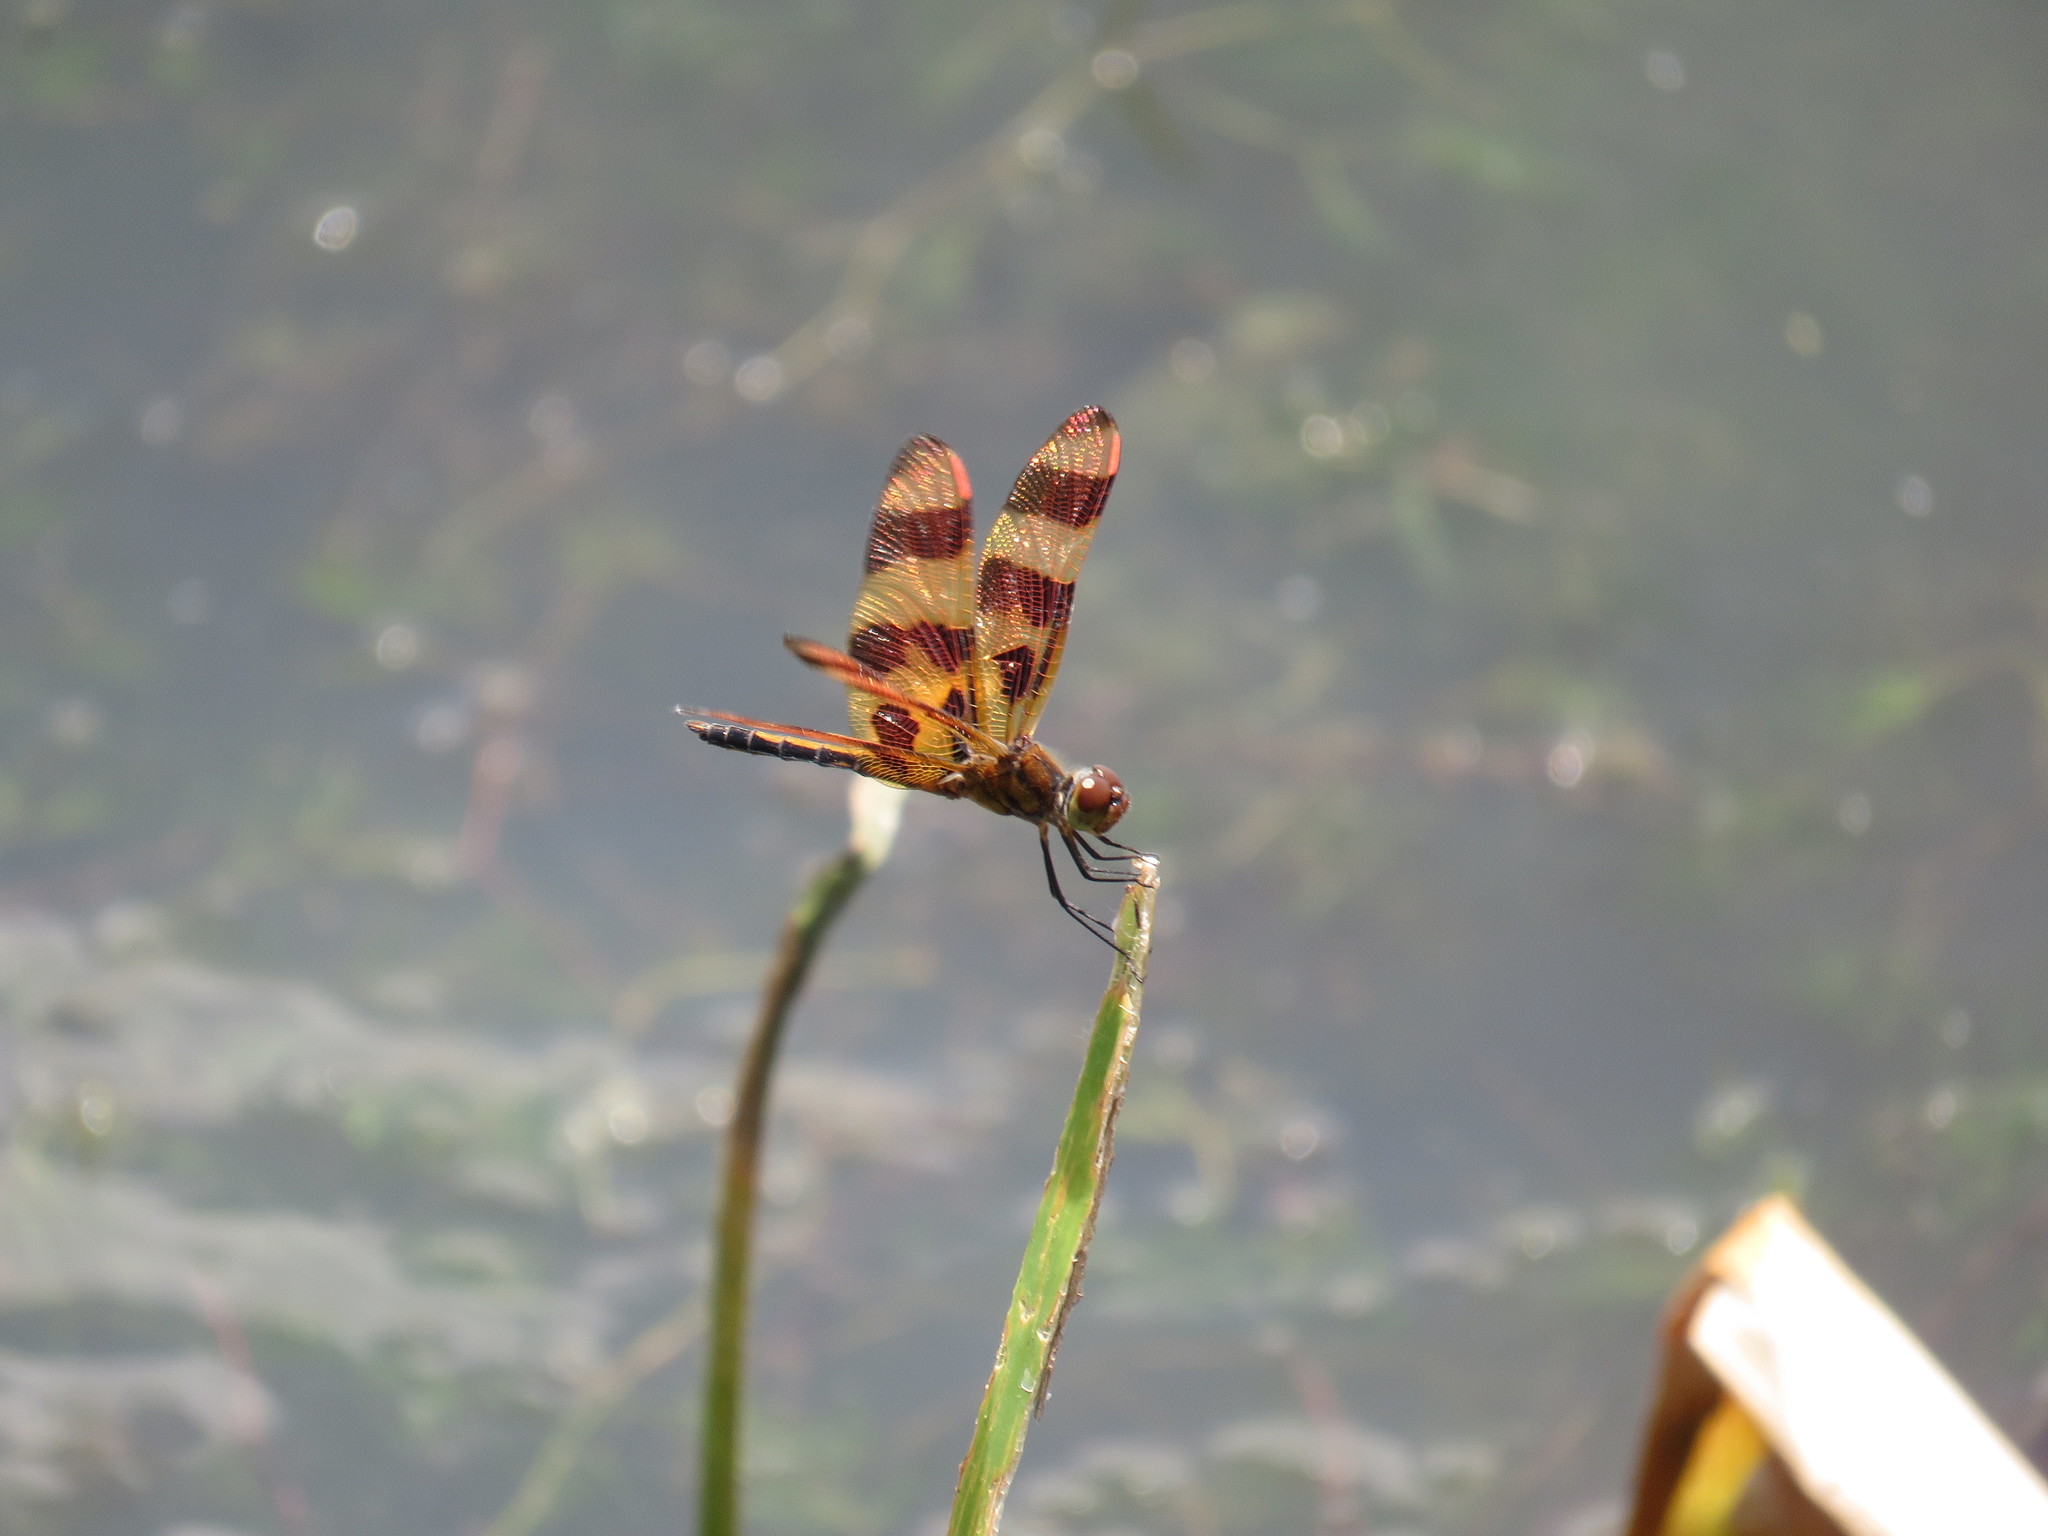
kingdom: Animalia
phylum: Arthropoda
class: Insecta
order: Odonata
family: Libellulidae
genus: Celithemis
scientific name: Celithemis eponina
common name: Halloween pennant
